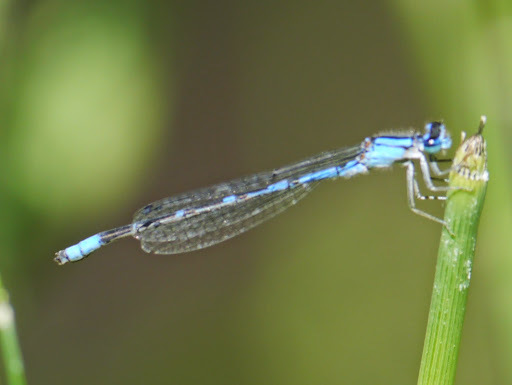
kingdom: Animalia
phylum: Arthropoda
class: Insecta
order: Odonata
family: Coenagrionidae
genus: Enallagma
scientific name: Enallagma praevarum
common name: Arroyo bluet
